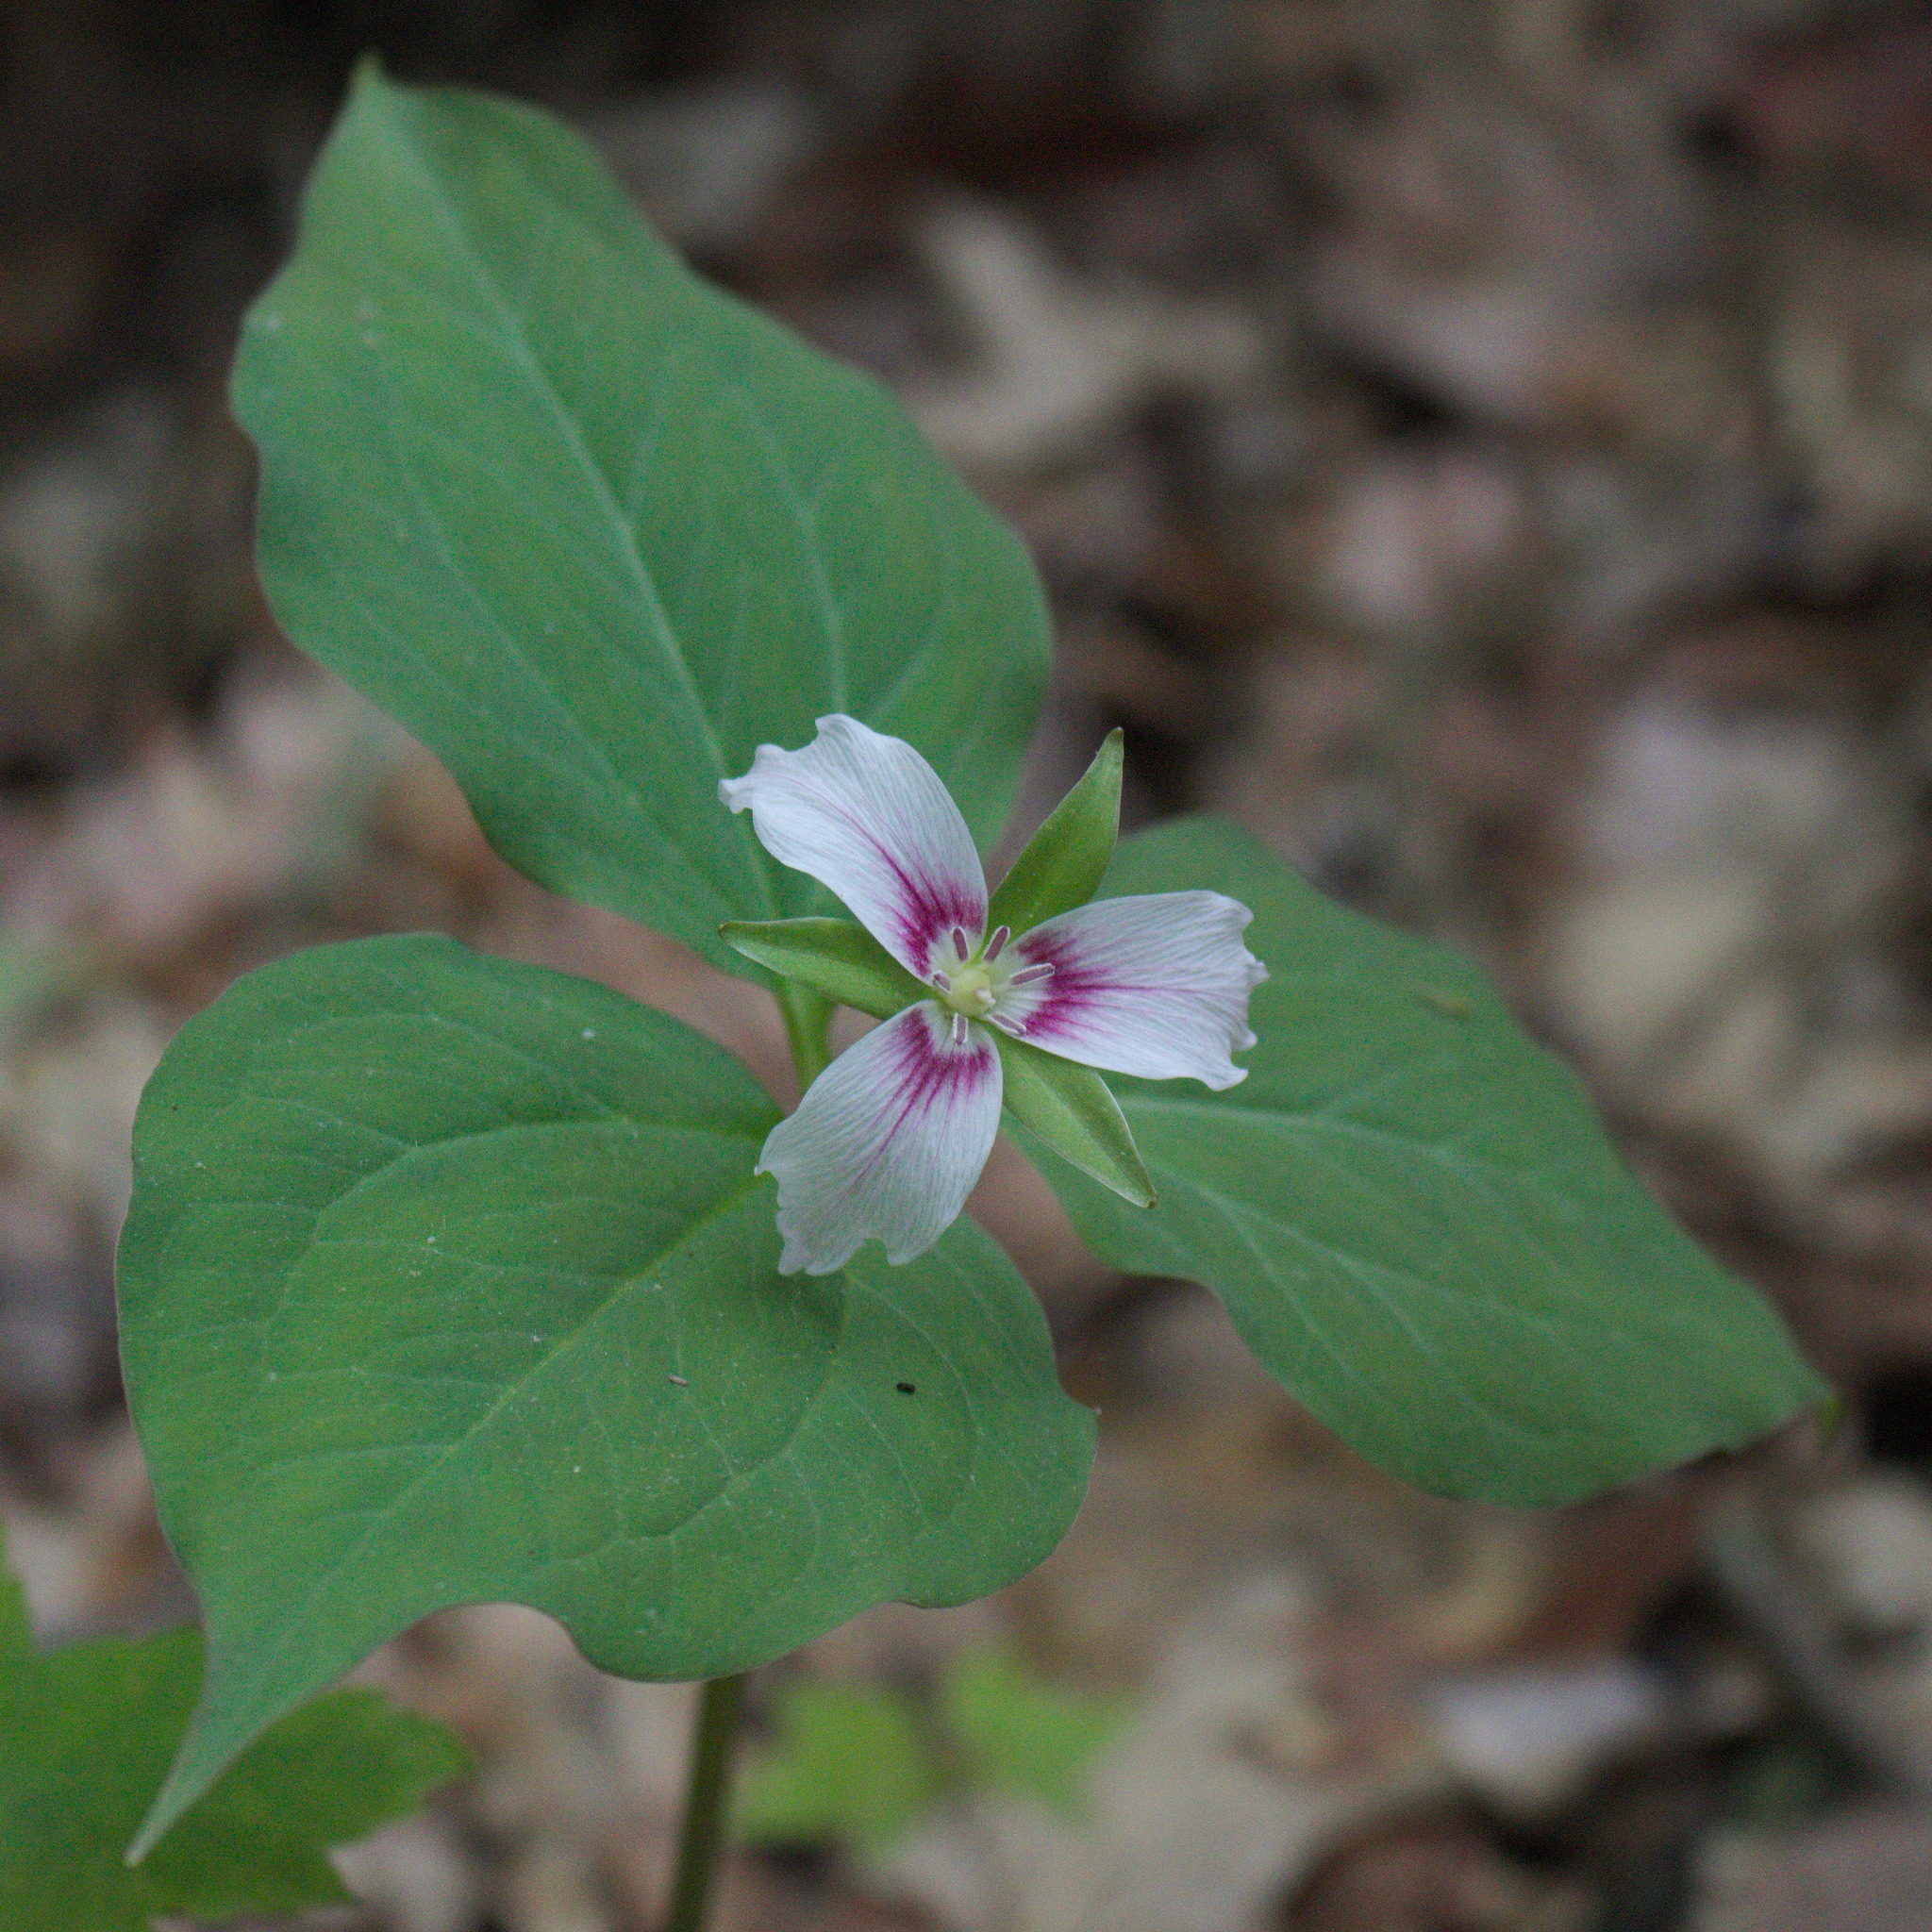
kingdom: Plantae
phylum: Tracheophyta
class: Liliopsida
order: Liliales
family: Melanthiaceae
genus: Trillium
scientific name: Trillium undulatum
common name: Paint trillium
